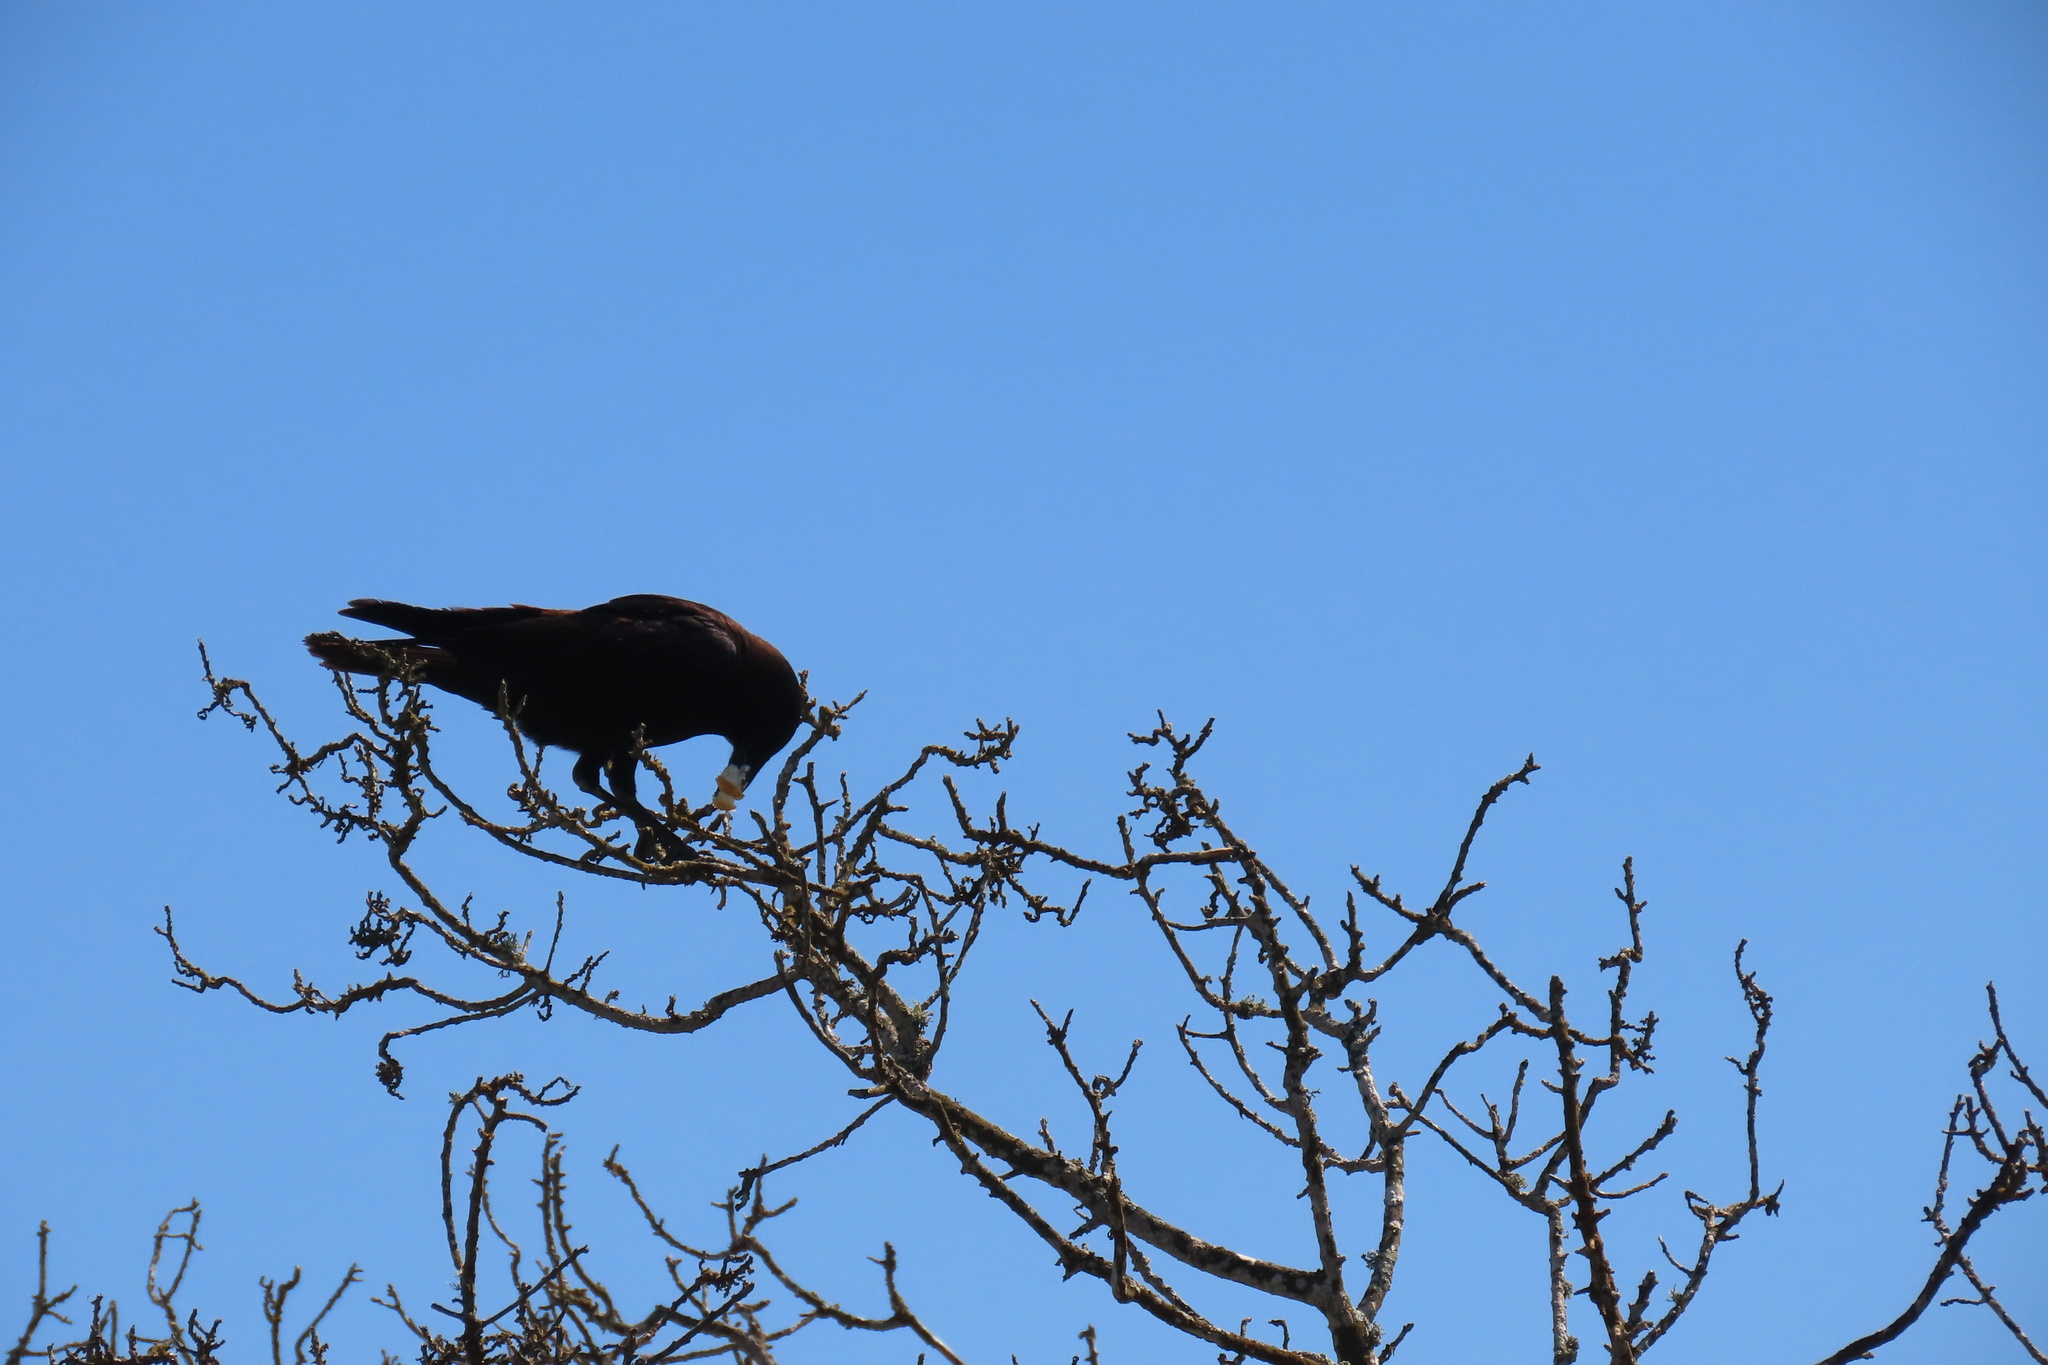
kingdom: Animalia
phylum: Chordata
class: Aves
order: Passeriformes
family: Corvidae
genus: Corvus
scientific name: Corvus brachyrhynchos
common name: American crow
